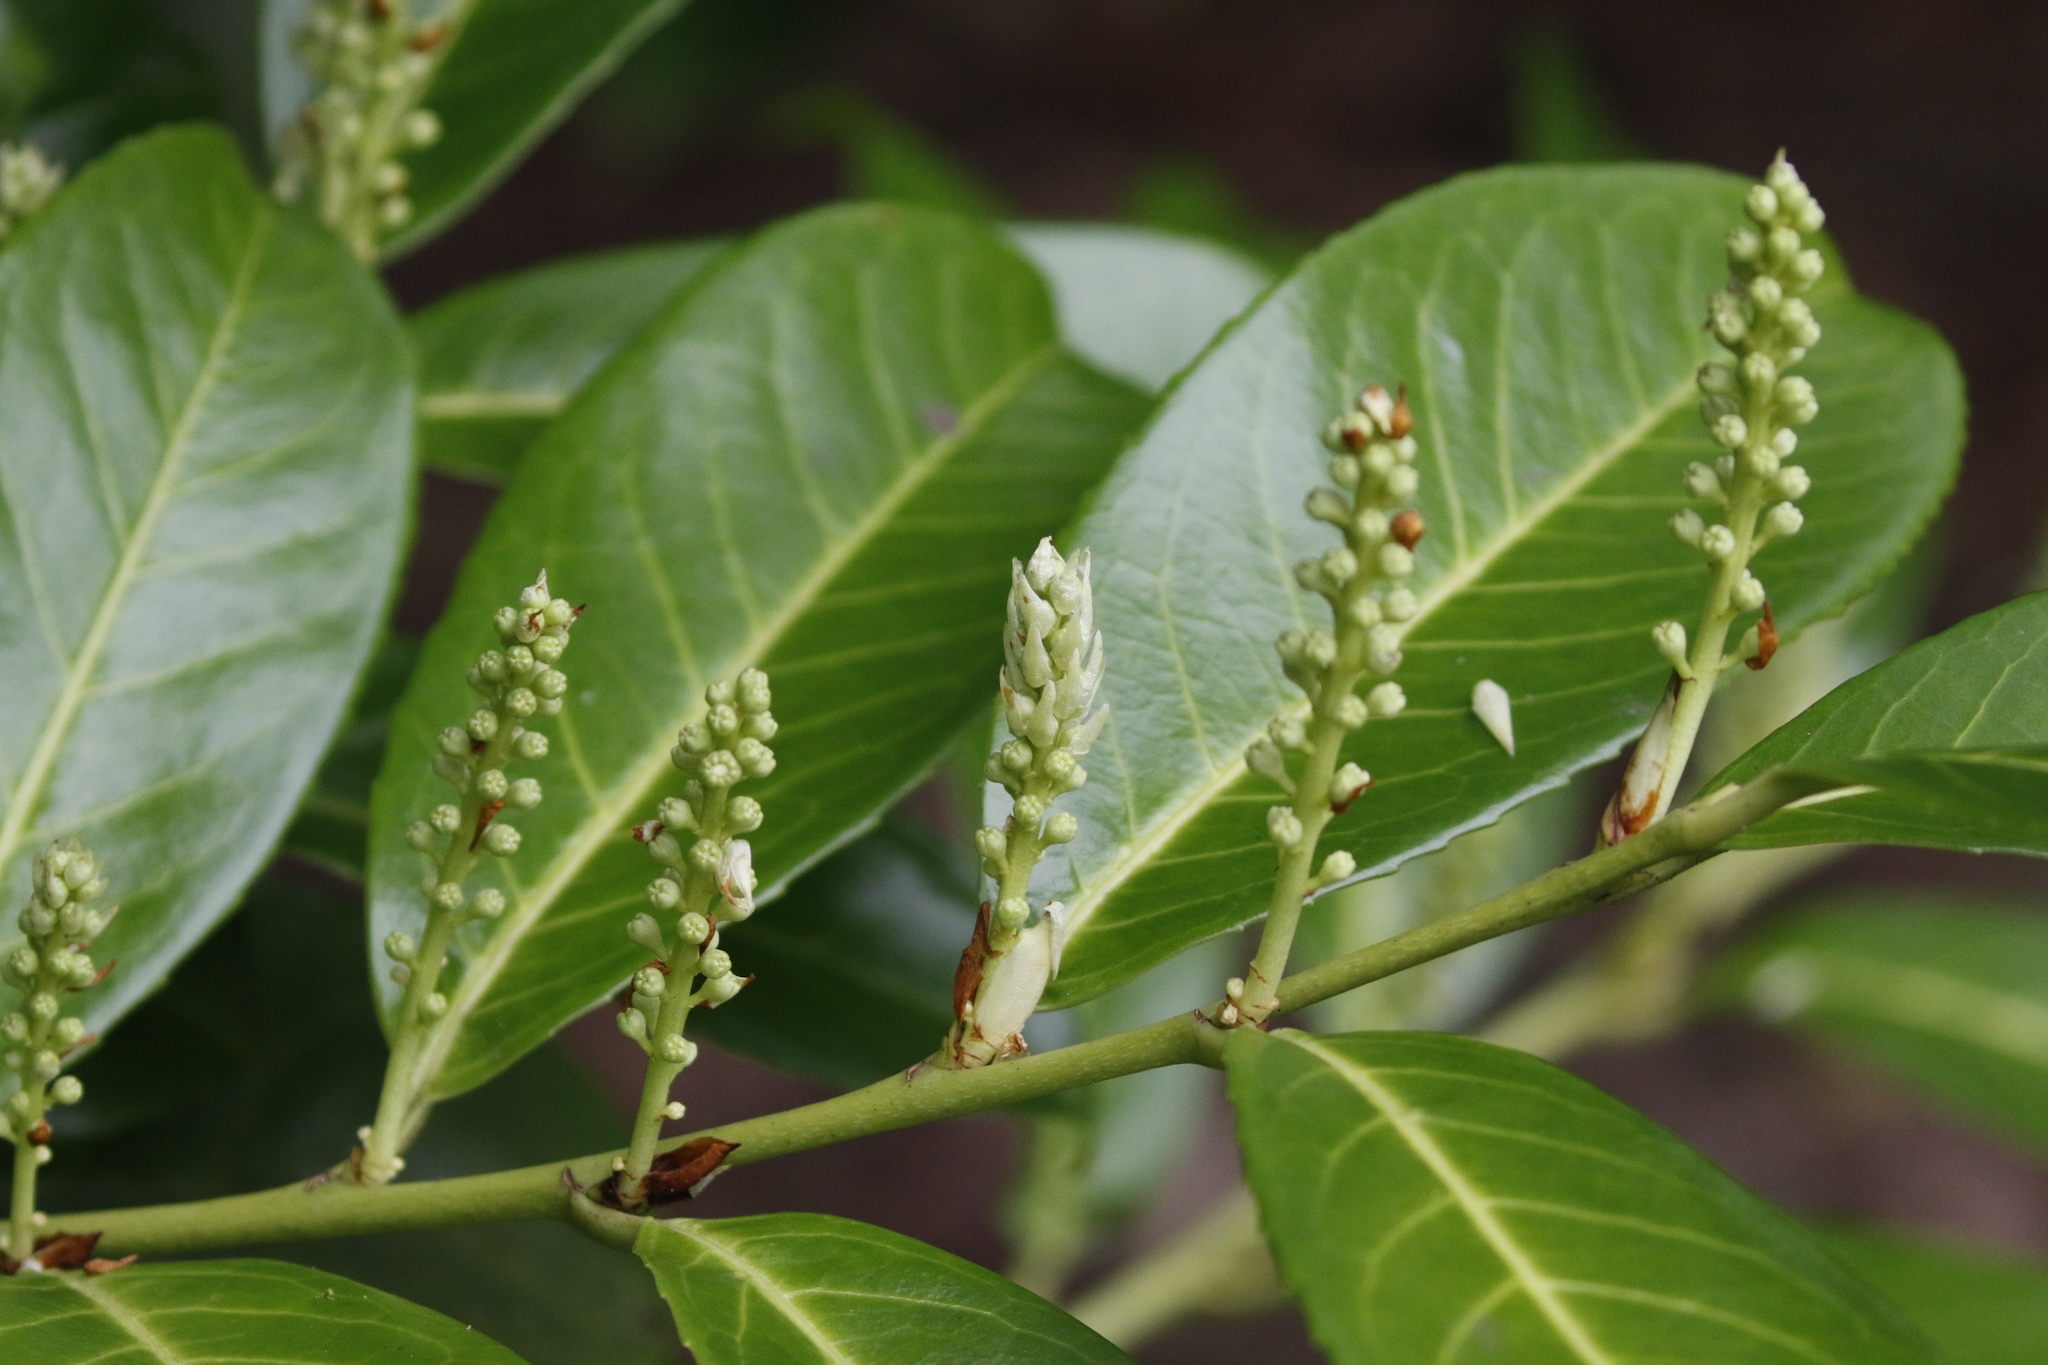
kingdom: Plantae
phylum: Tracheophyta
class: Magnoliopsida
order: Rosales
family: Rosaceae
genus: Prunus
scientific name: Prunus laurocerasus
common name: Cherry laurel
